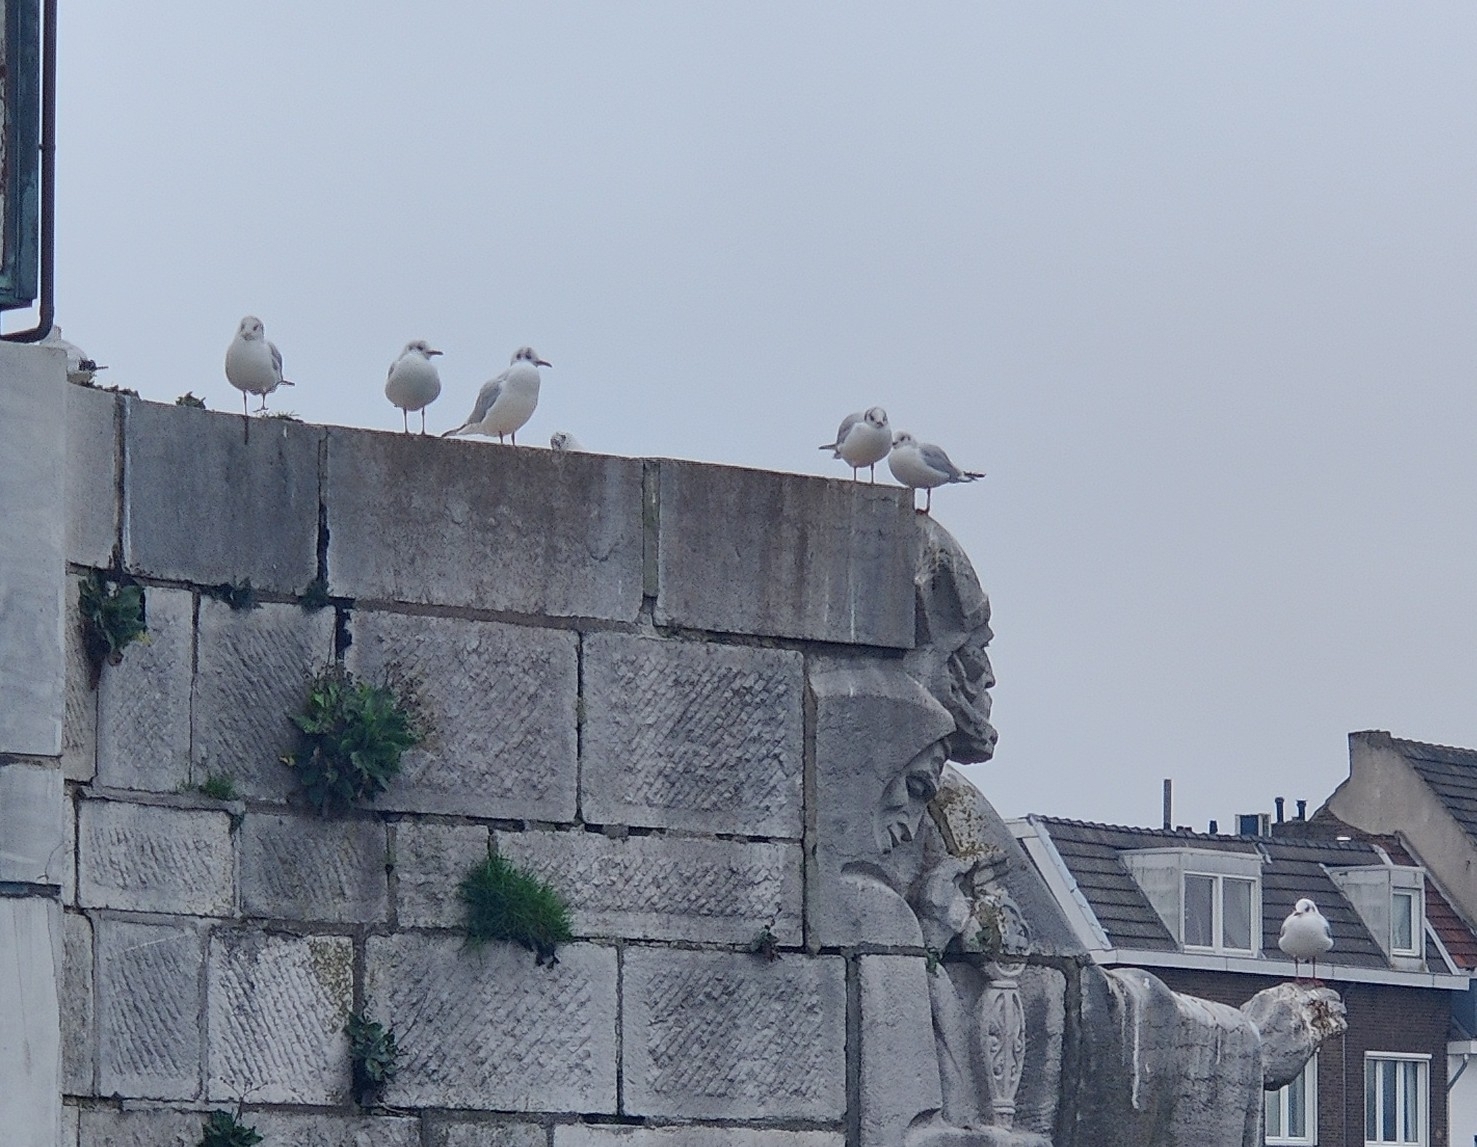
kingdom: Animalia
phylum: Chordata
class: Aves
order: Charadriiformes
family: Laridae
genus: Chroicocephalus
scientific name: Chroicocephalus ridibundus
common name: Black-headed gull
